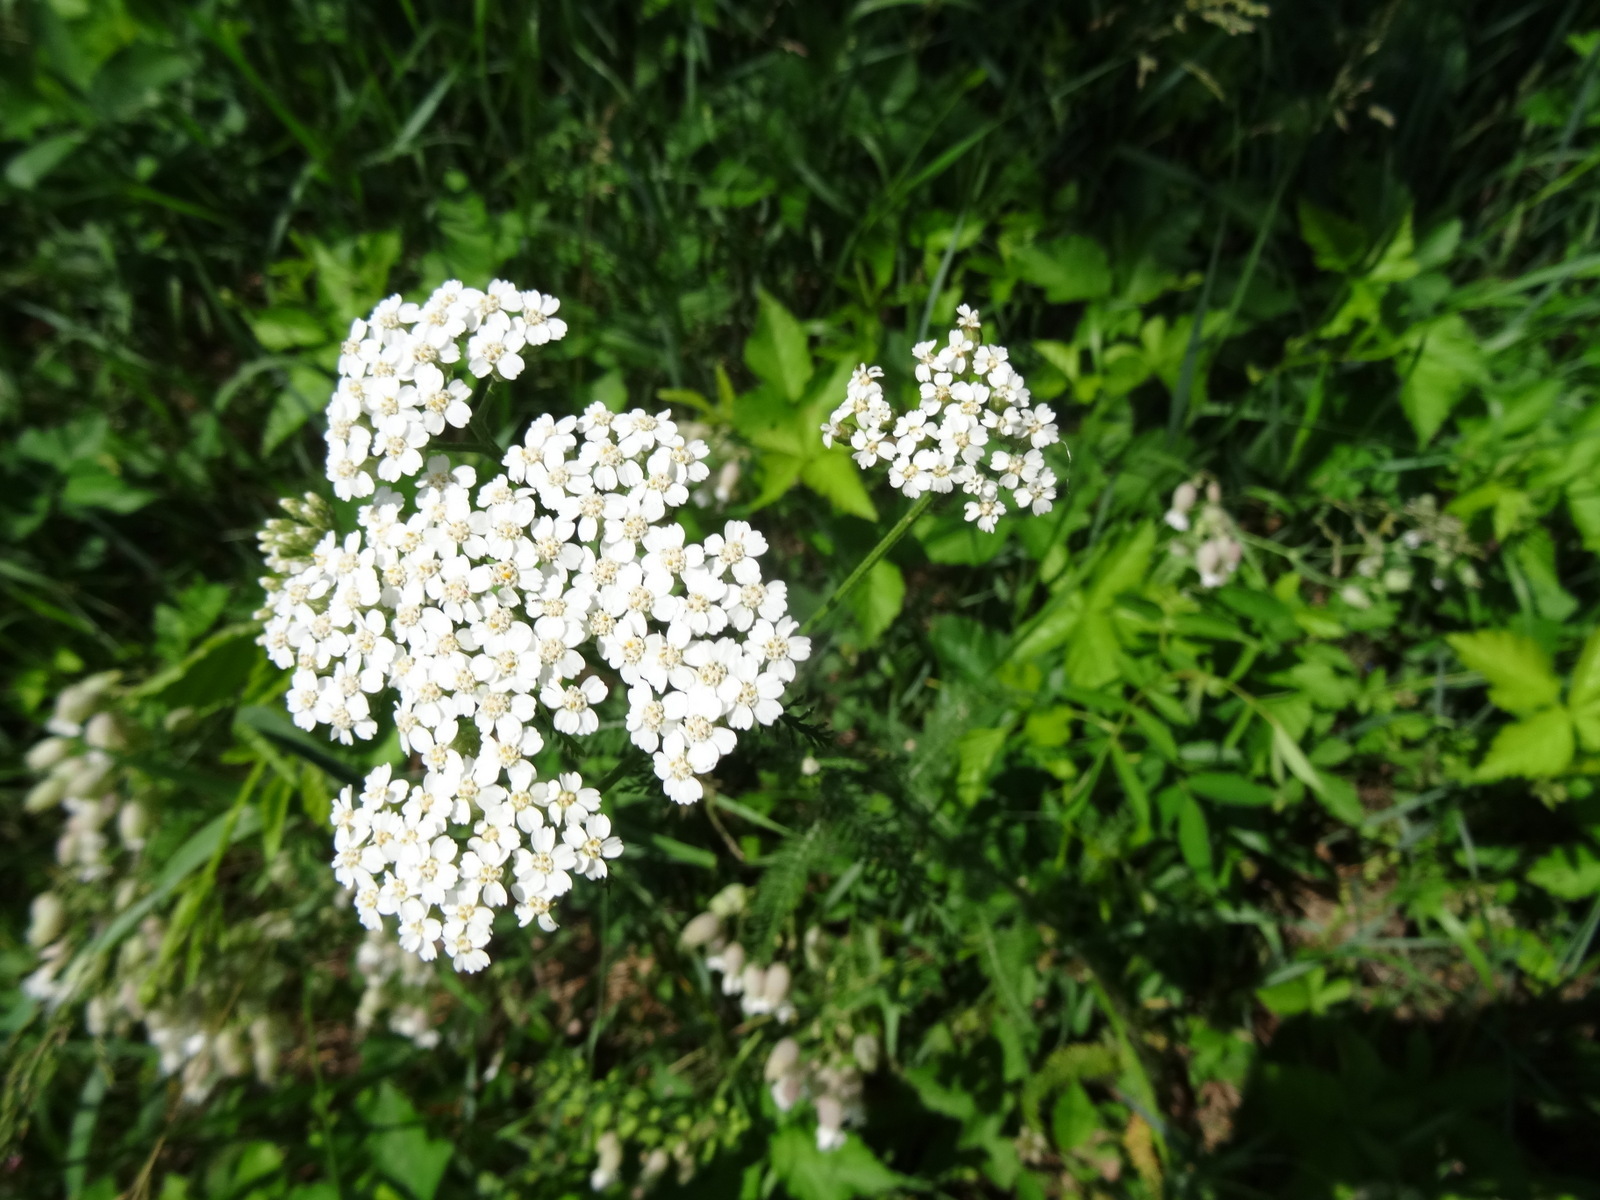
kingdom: Plantae
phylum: Tracheophyta
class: Magnoliopsida
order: Asterales
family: Asteraceae
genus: Achillea
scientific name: Achillea millefolium
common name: Yarrow
